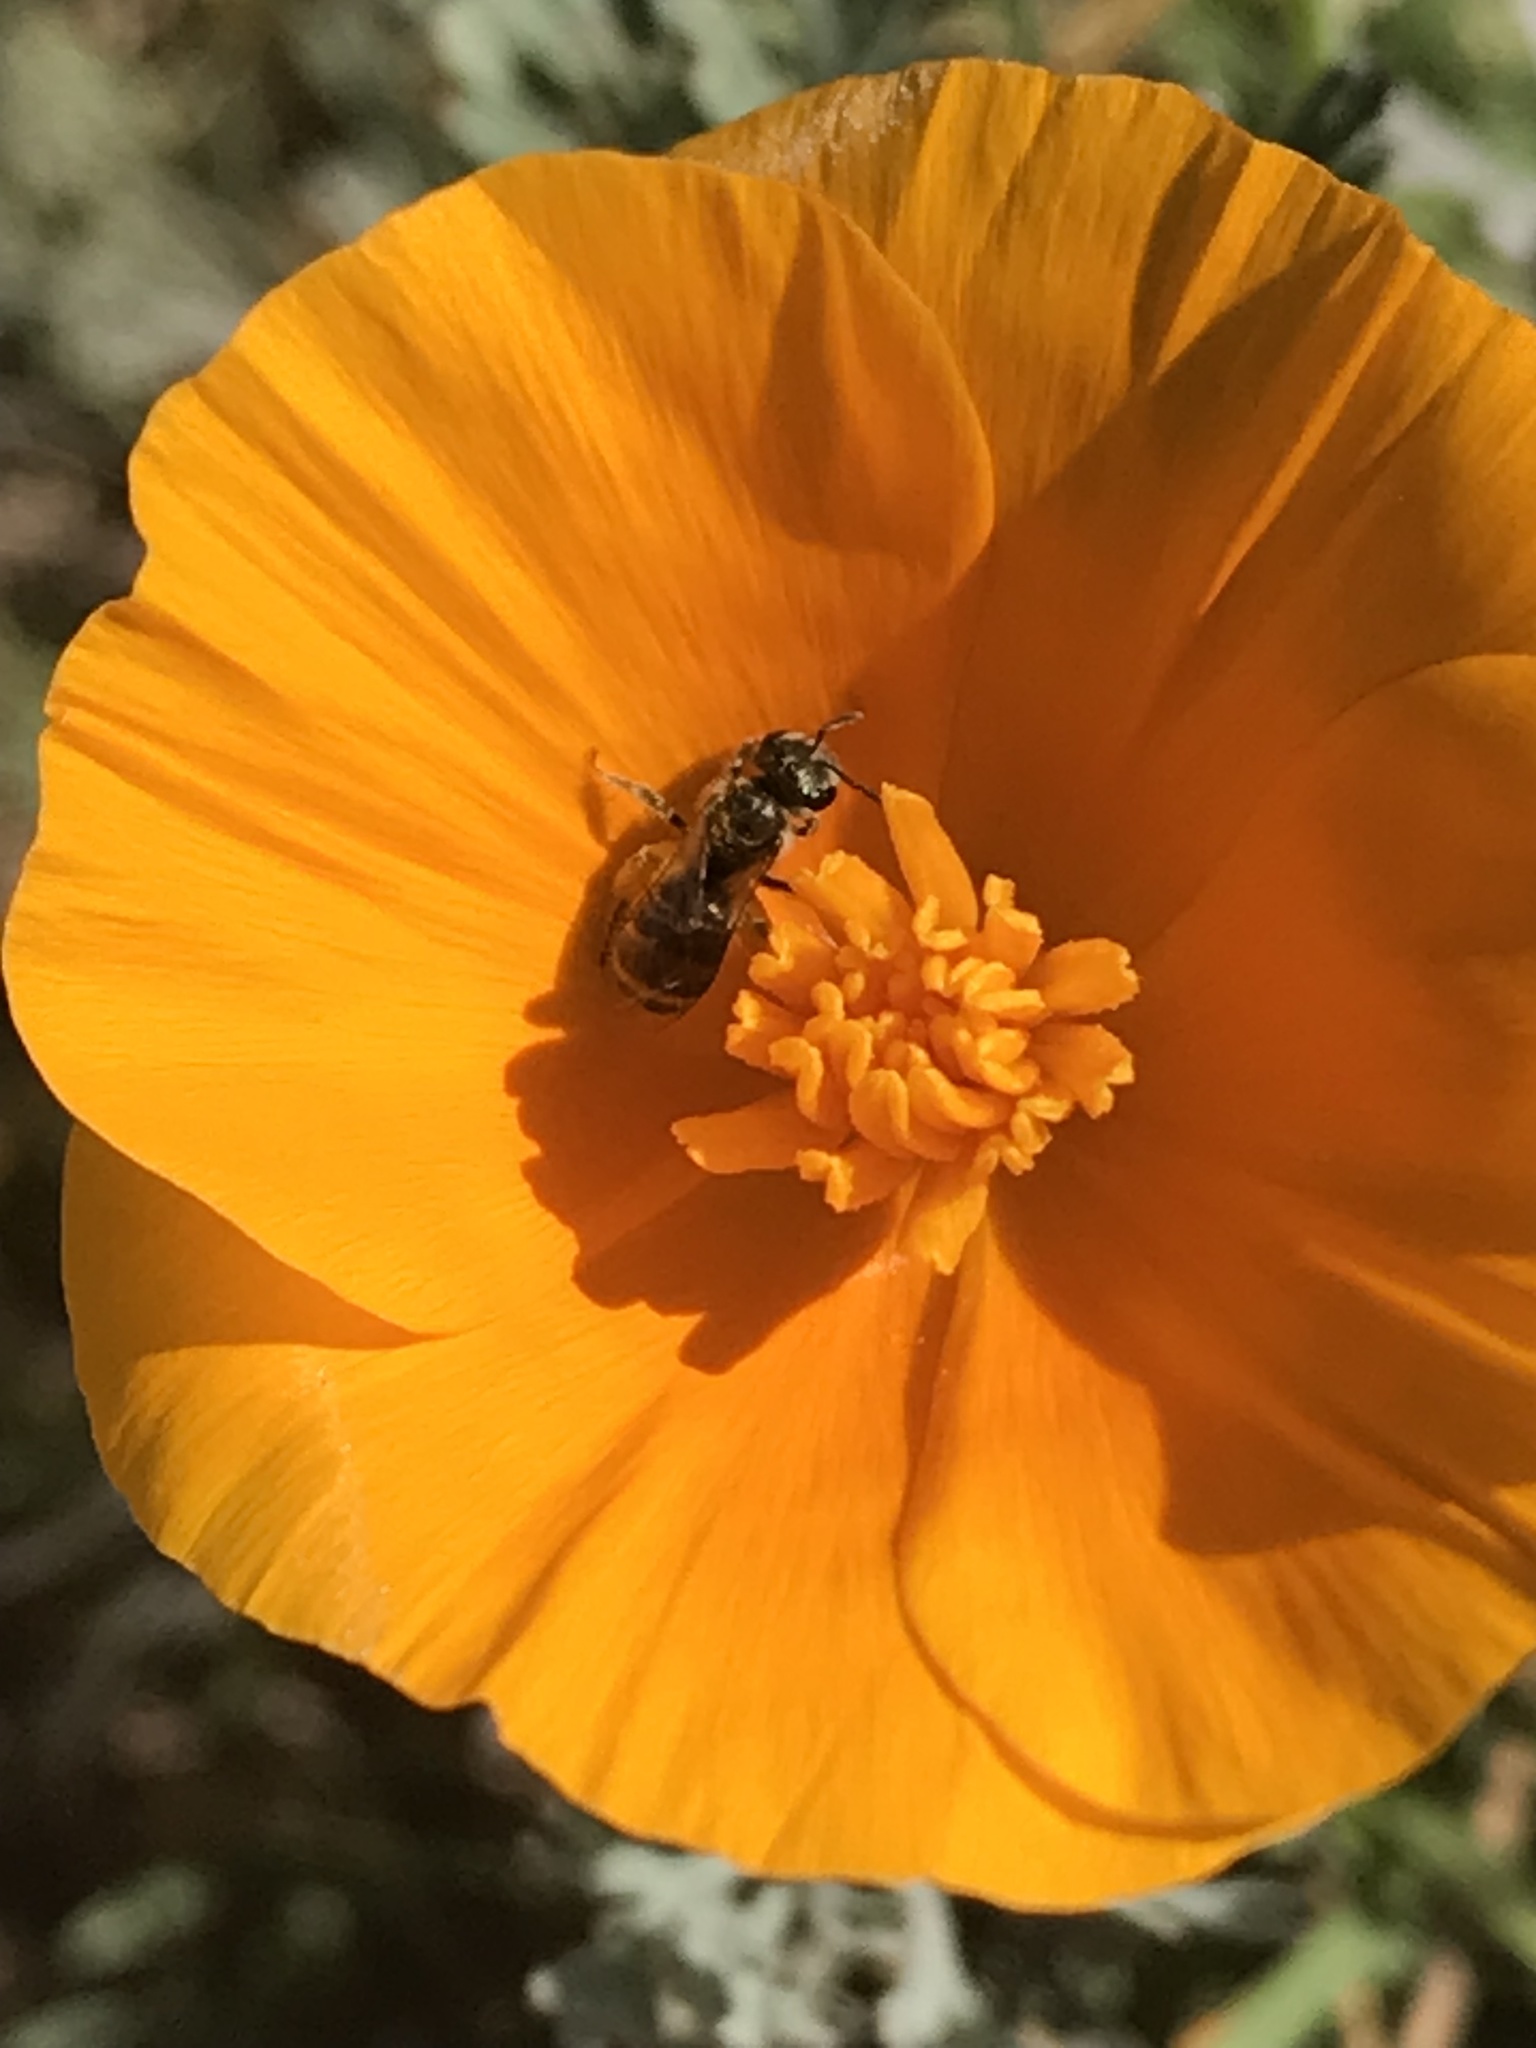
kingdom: Animalia
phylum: Arthropoda
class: Insecta
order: Hymenoptera
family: Halictidae
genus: Halictus
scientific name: Halictus tripartitus
